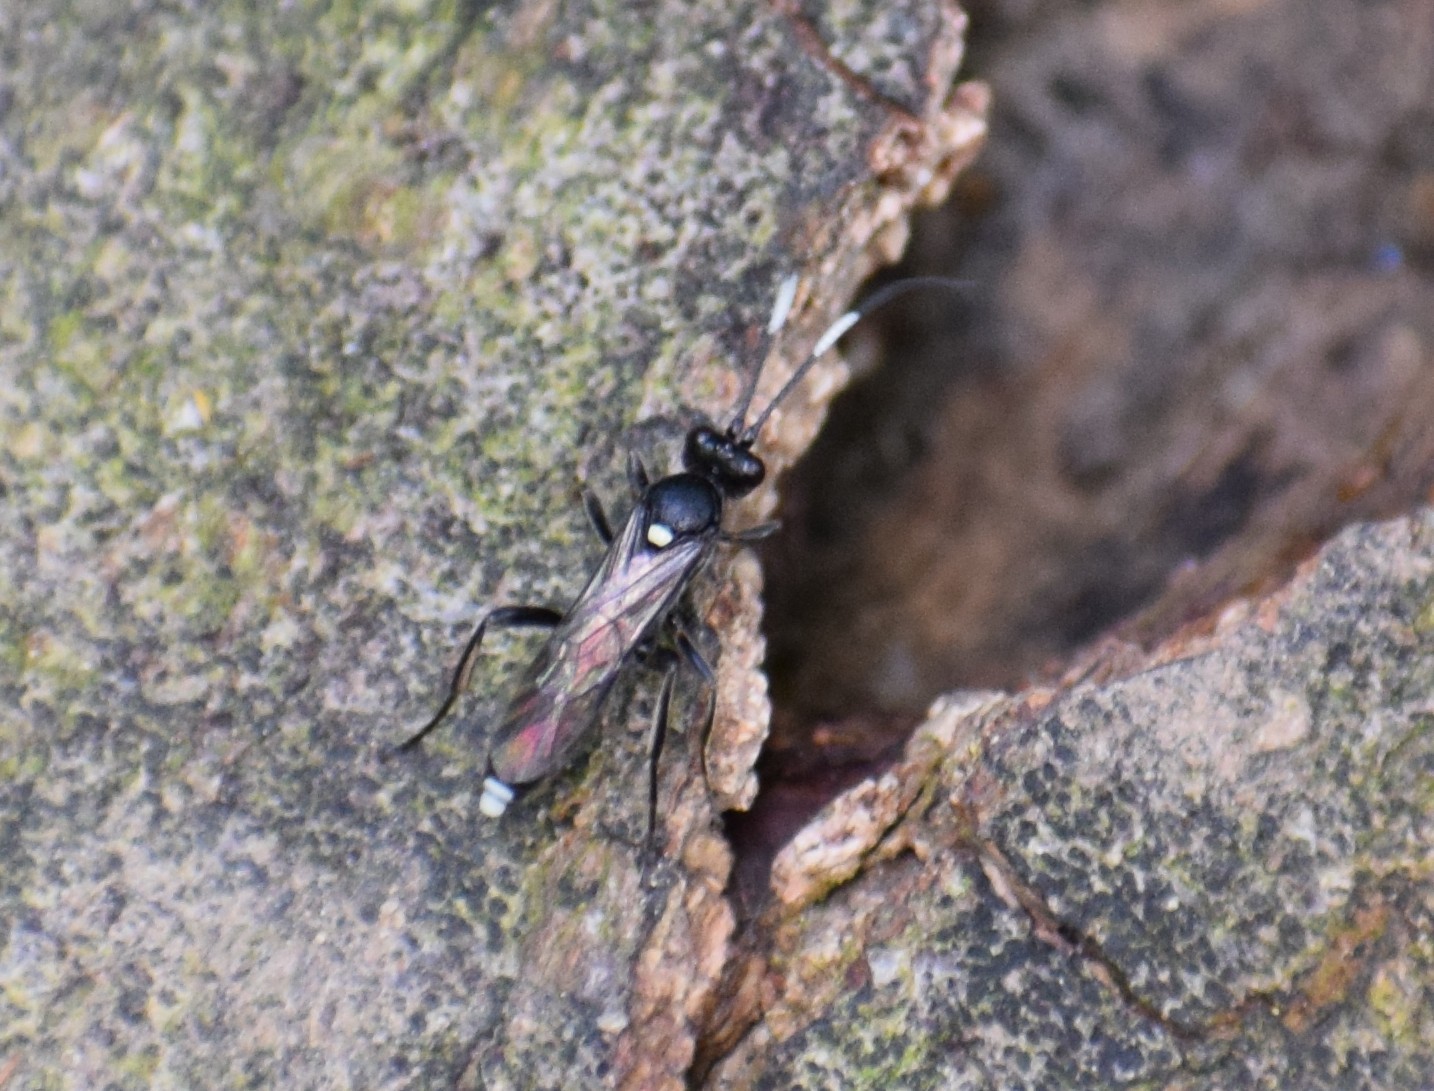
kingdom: Animalia
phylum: Arthropoda
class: Insecta
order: Hymenoptera
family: Ichneumonidae
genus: Ichneumon
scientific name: Ichneumon
